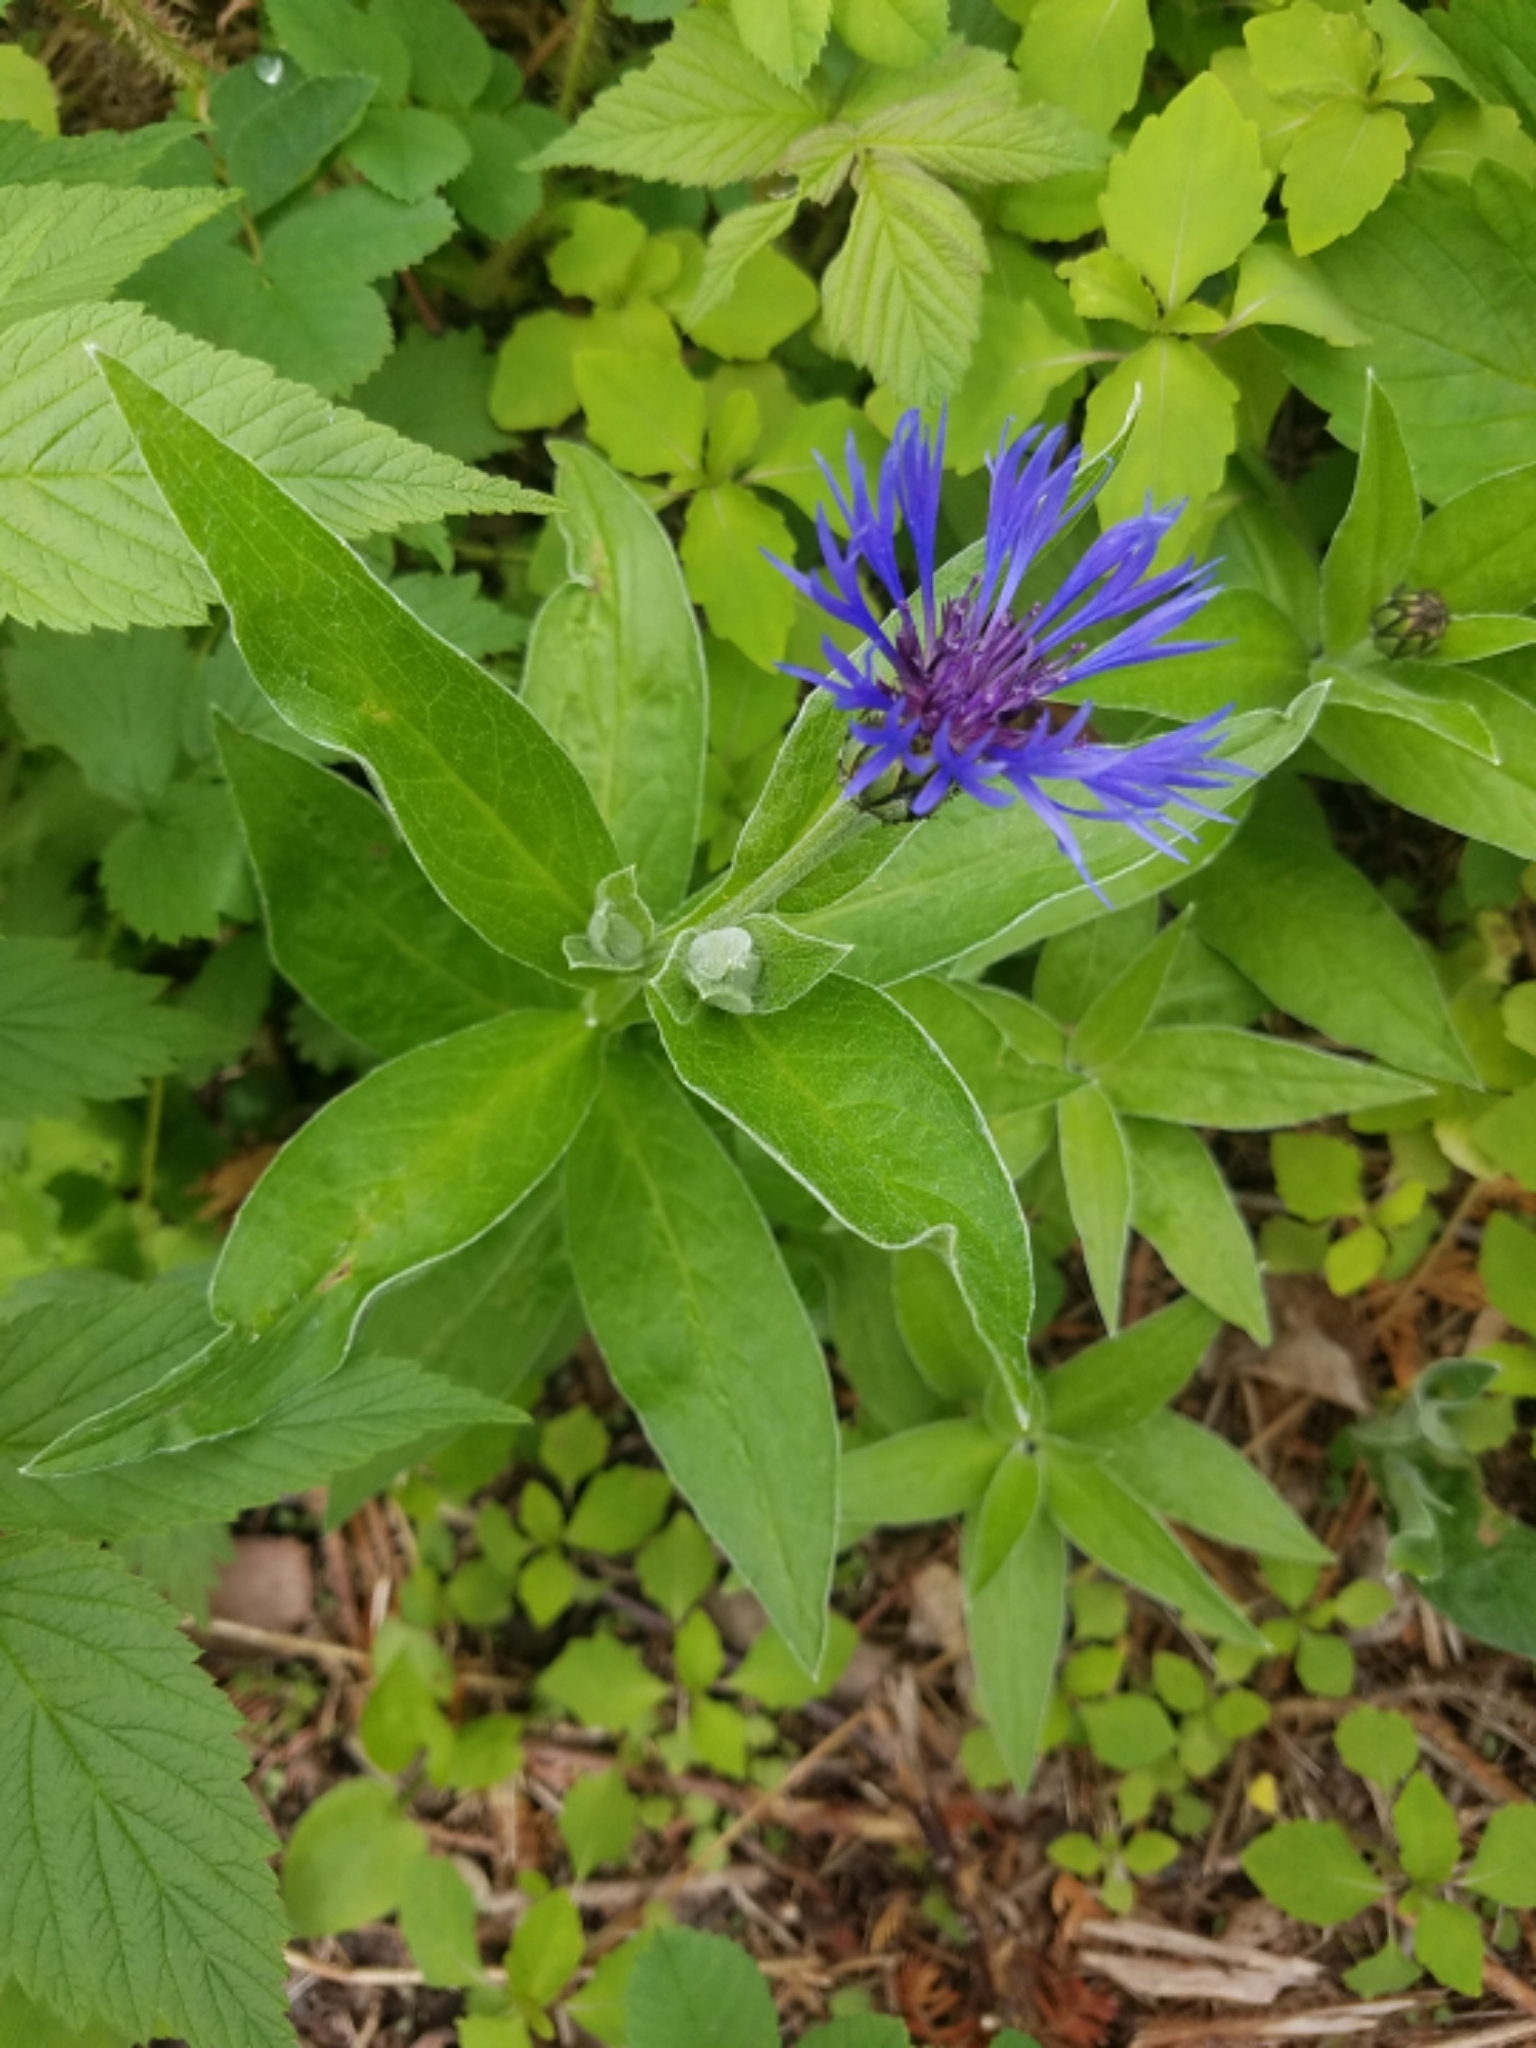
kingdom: Plantae
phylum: Tracheophyta
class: Magnoliopsida
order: Asterales
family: Asteraceae
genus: Centaurea
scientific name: Centaurea montana
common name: Perennial cornflower
